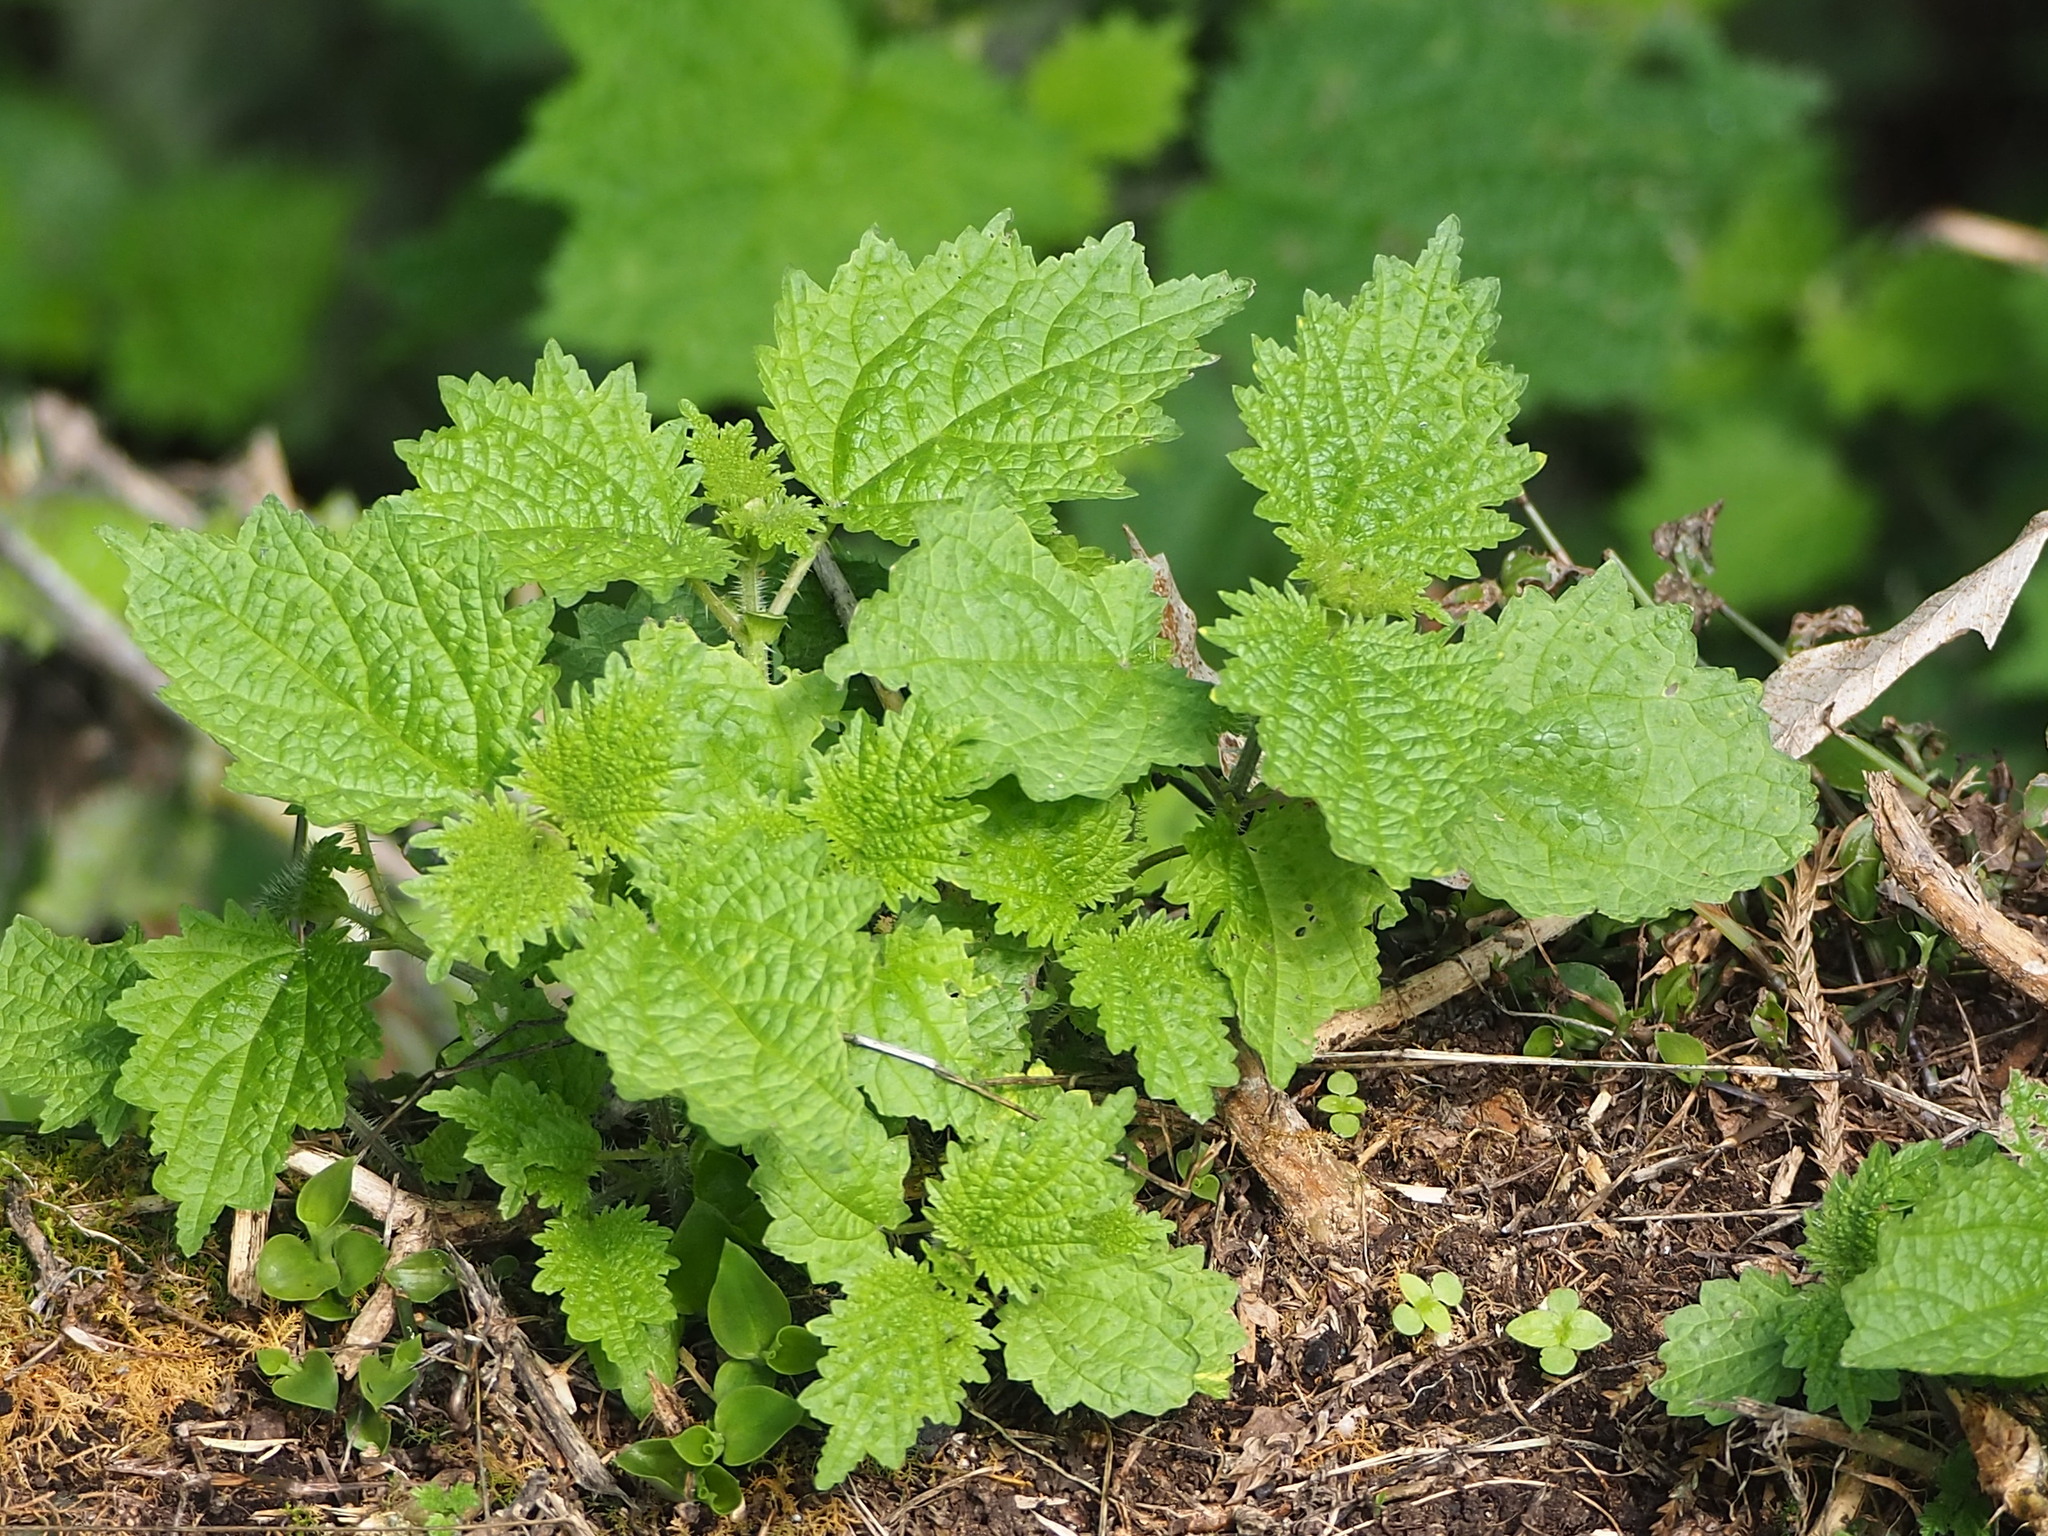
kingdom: Plantae
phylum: Tracheophyta
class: Magnoliopsida
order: Rosales
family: Urticaceae
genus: Urtica
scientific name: Urtica thunbergiana
